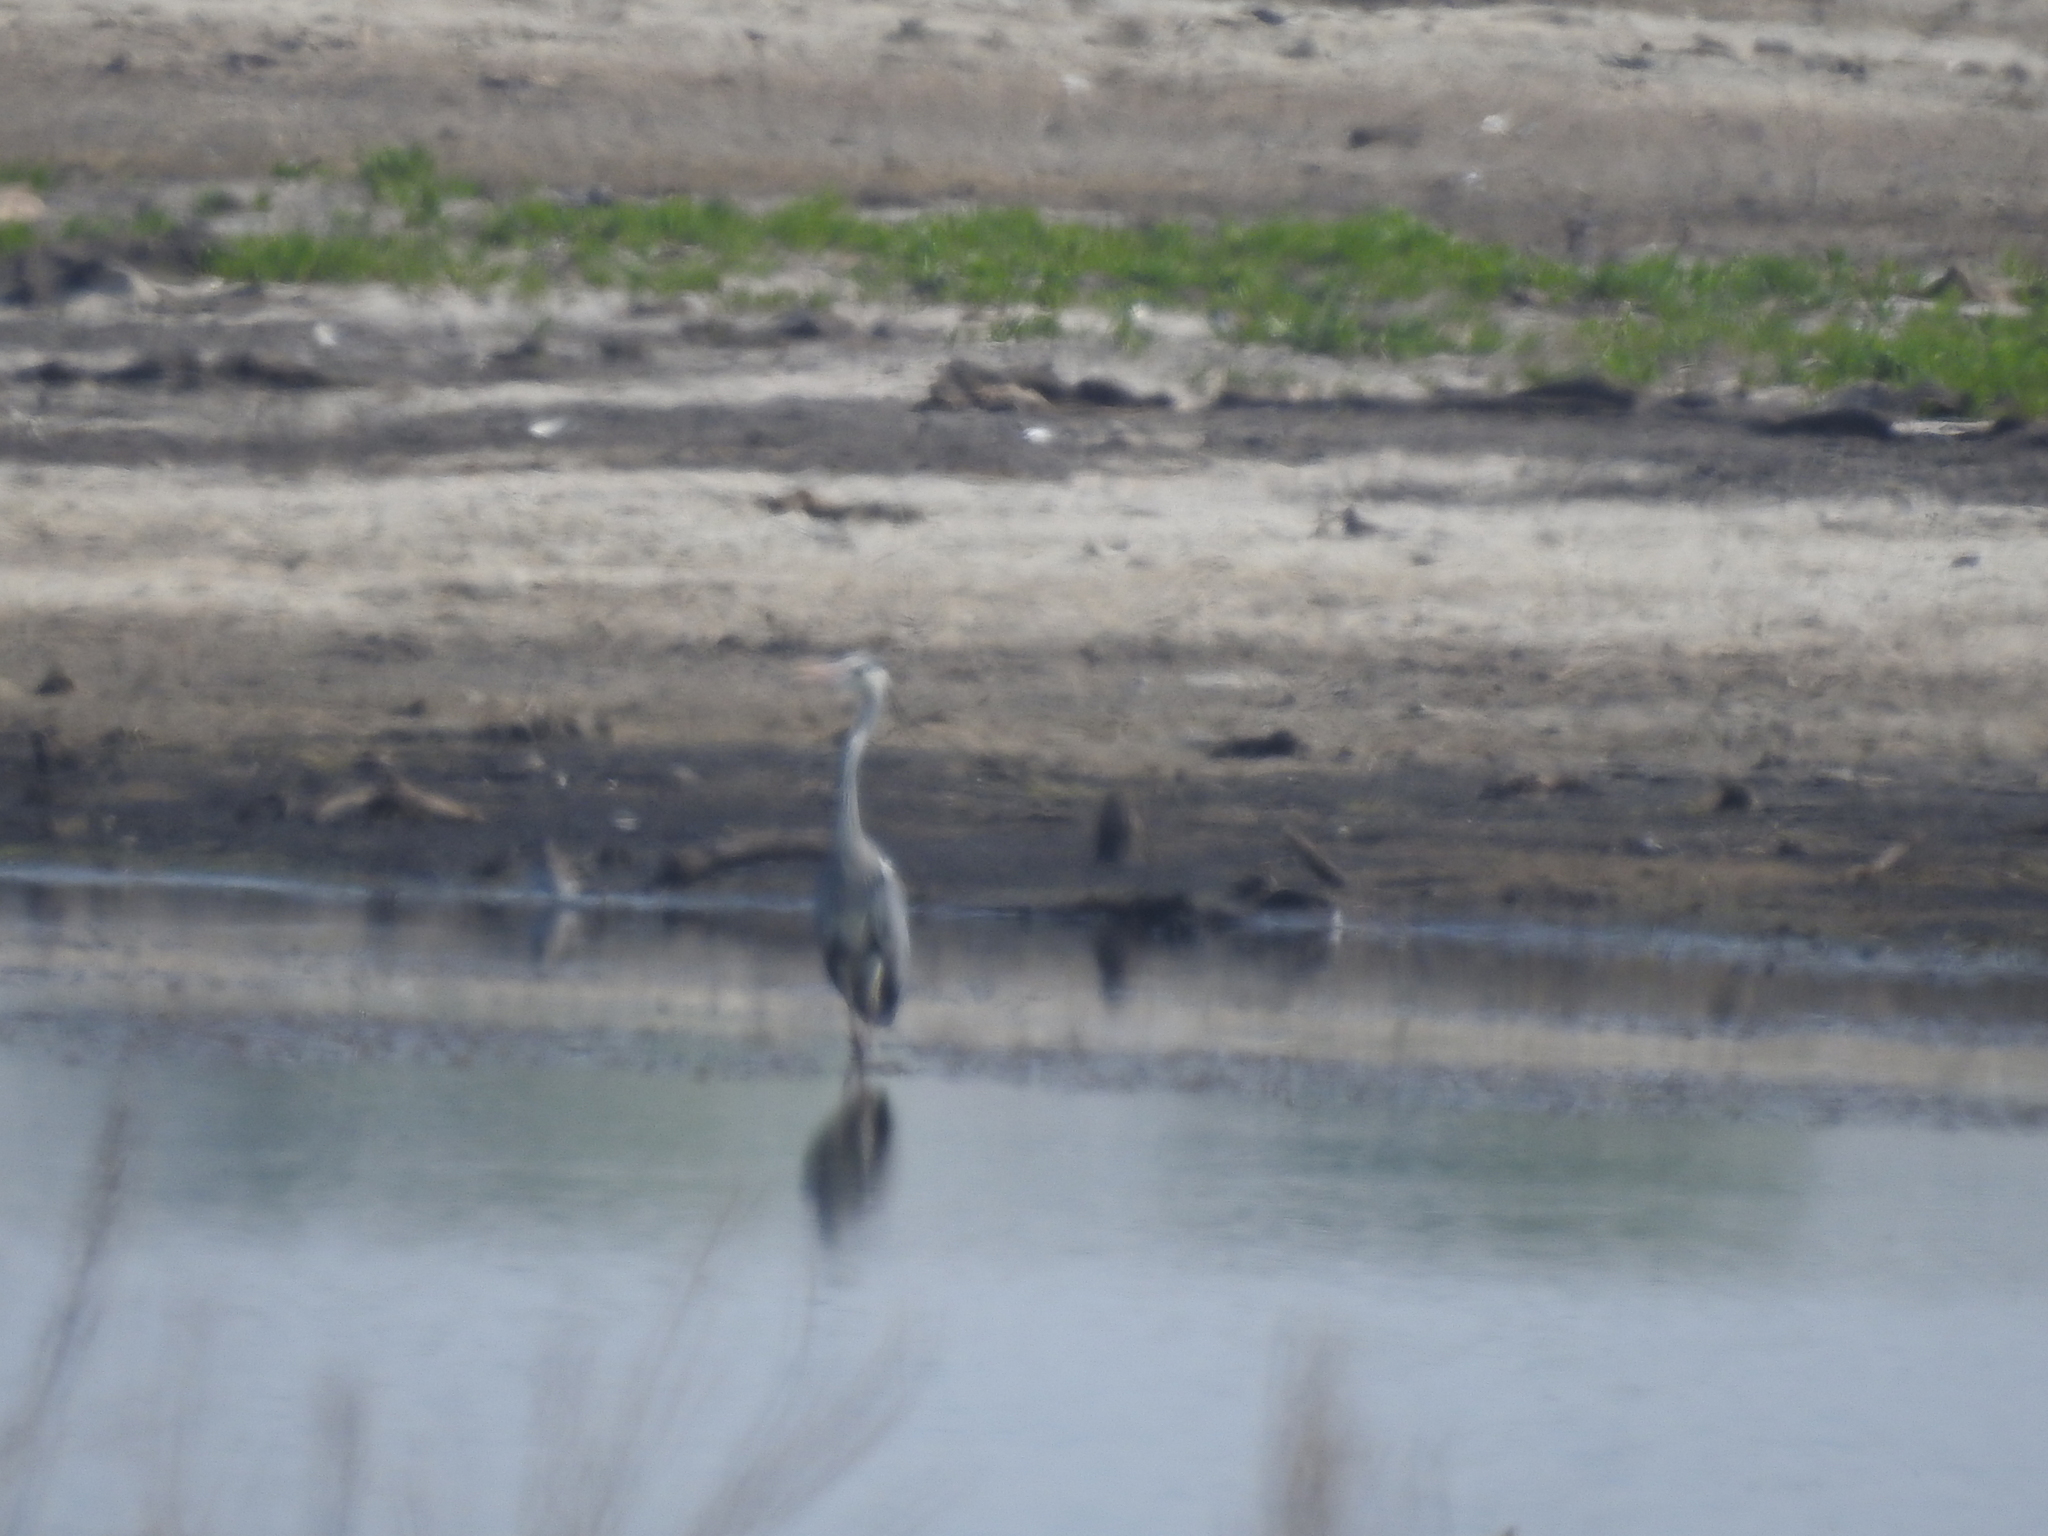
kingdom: Animalia
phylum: Chordata
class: Aves
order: Pelecaniformes
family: Ardeidae
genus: Ardea
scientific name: Ardea cinerea
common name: Grey heron
